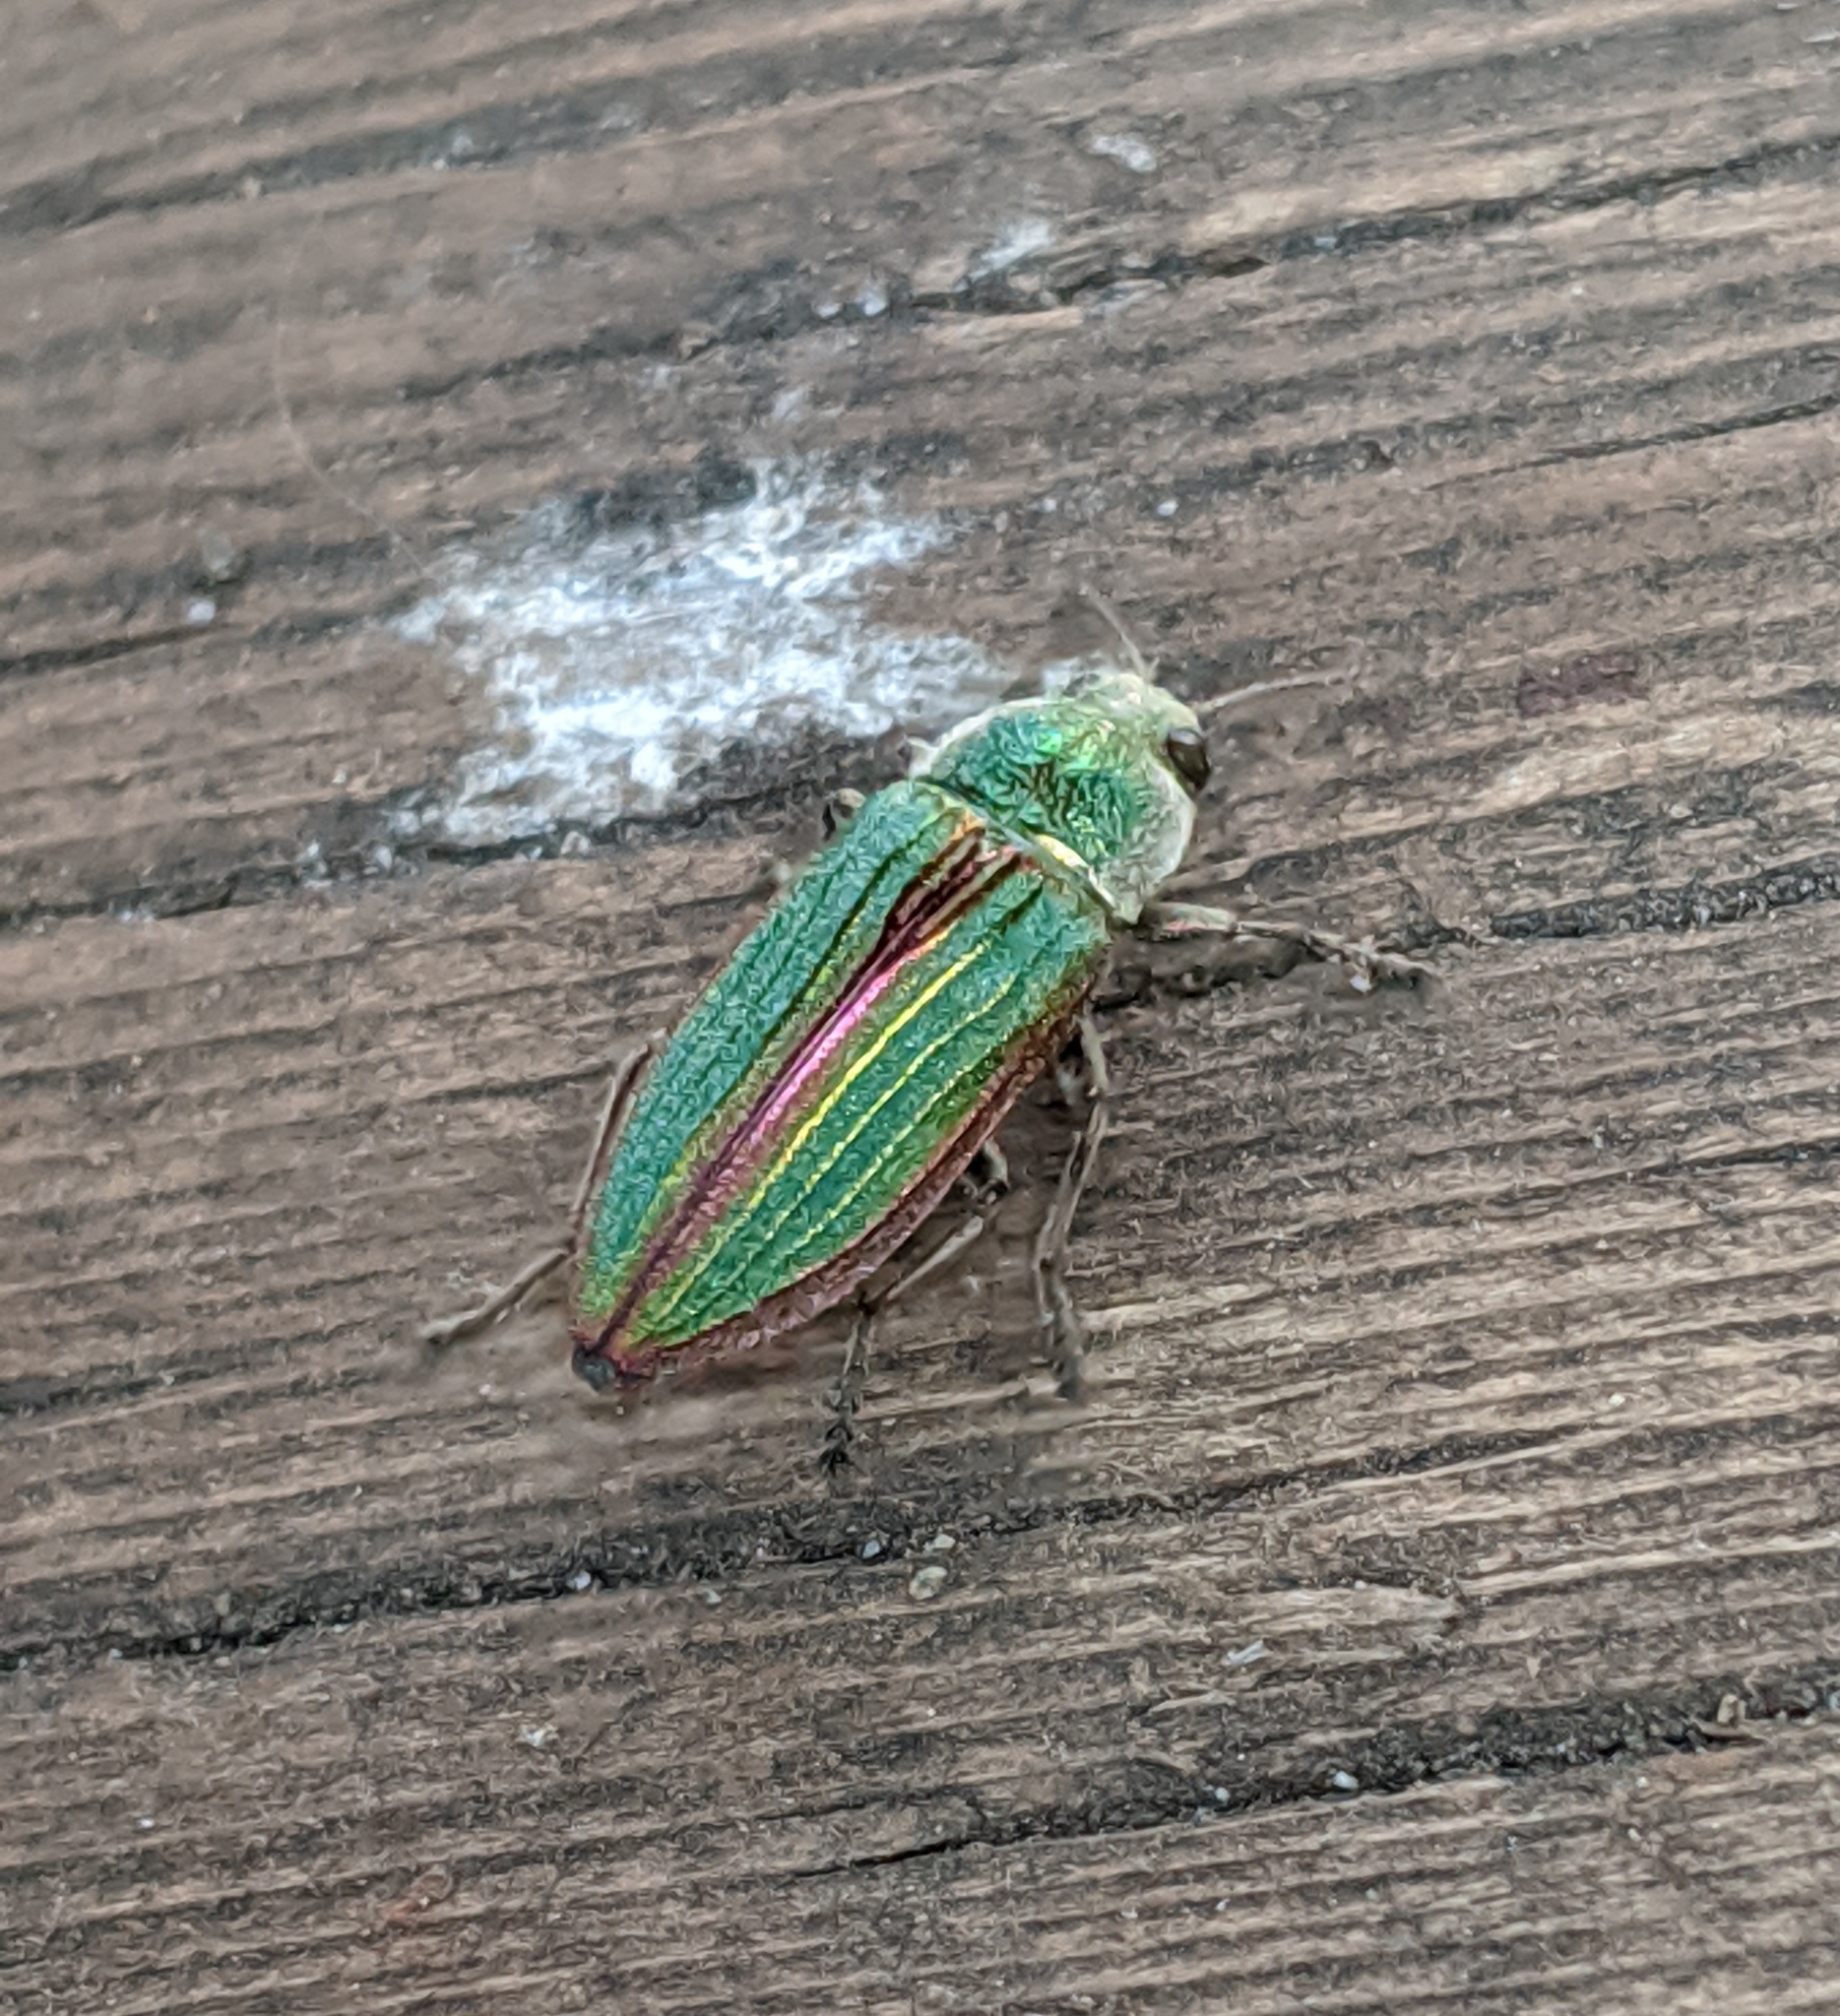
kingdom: Animalia
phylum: Arthropoda
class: Insecta
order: Coleoptera
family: Buprestidae
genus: Buprestis
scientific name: Buprestis aurulenta
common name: Golden buprestid
